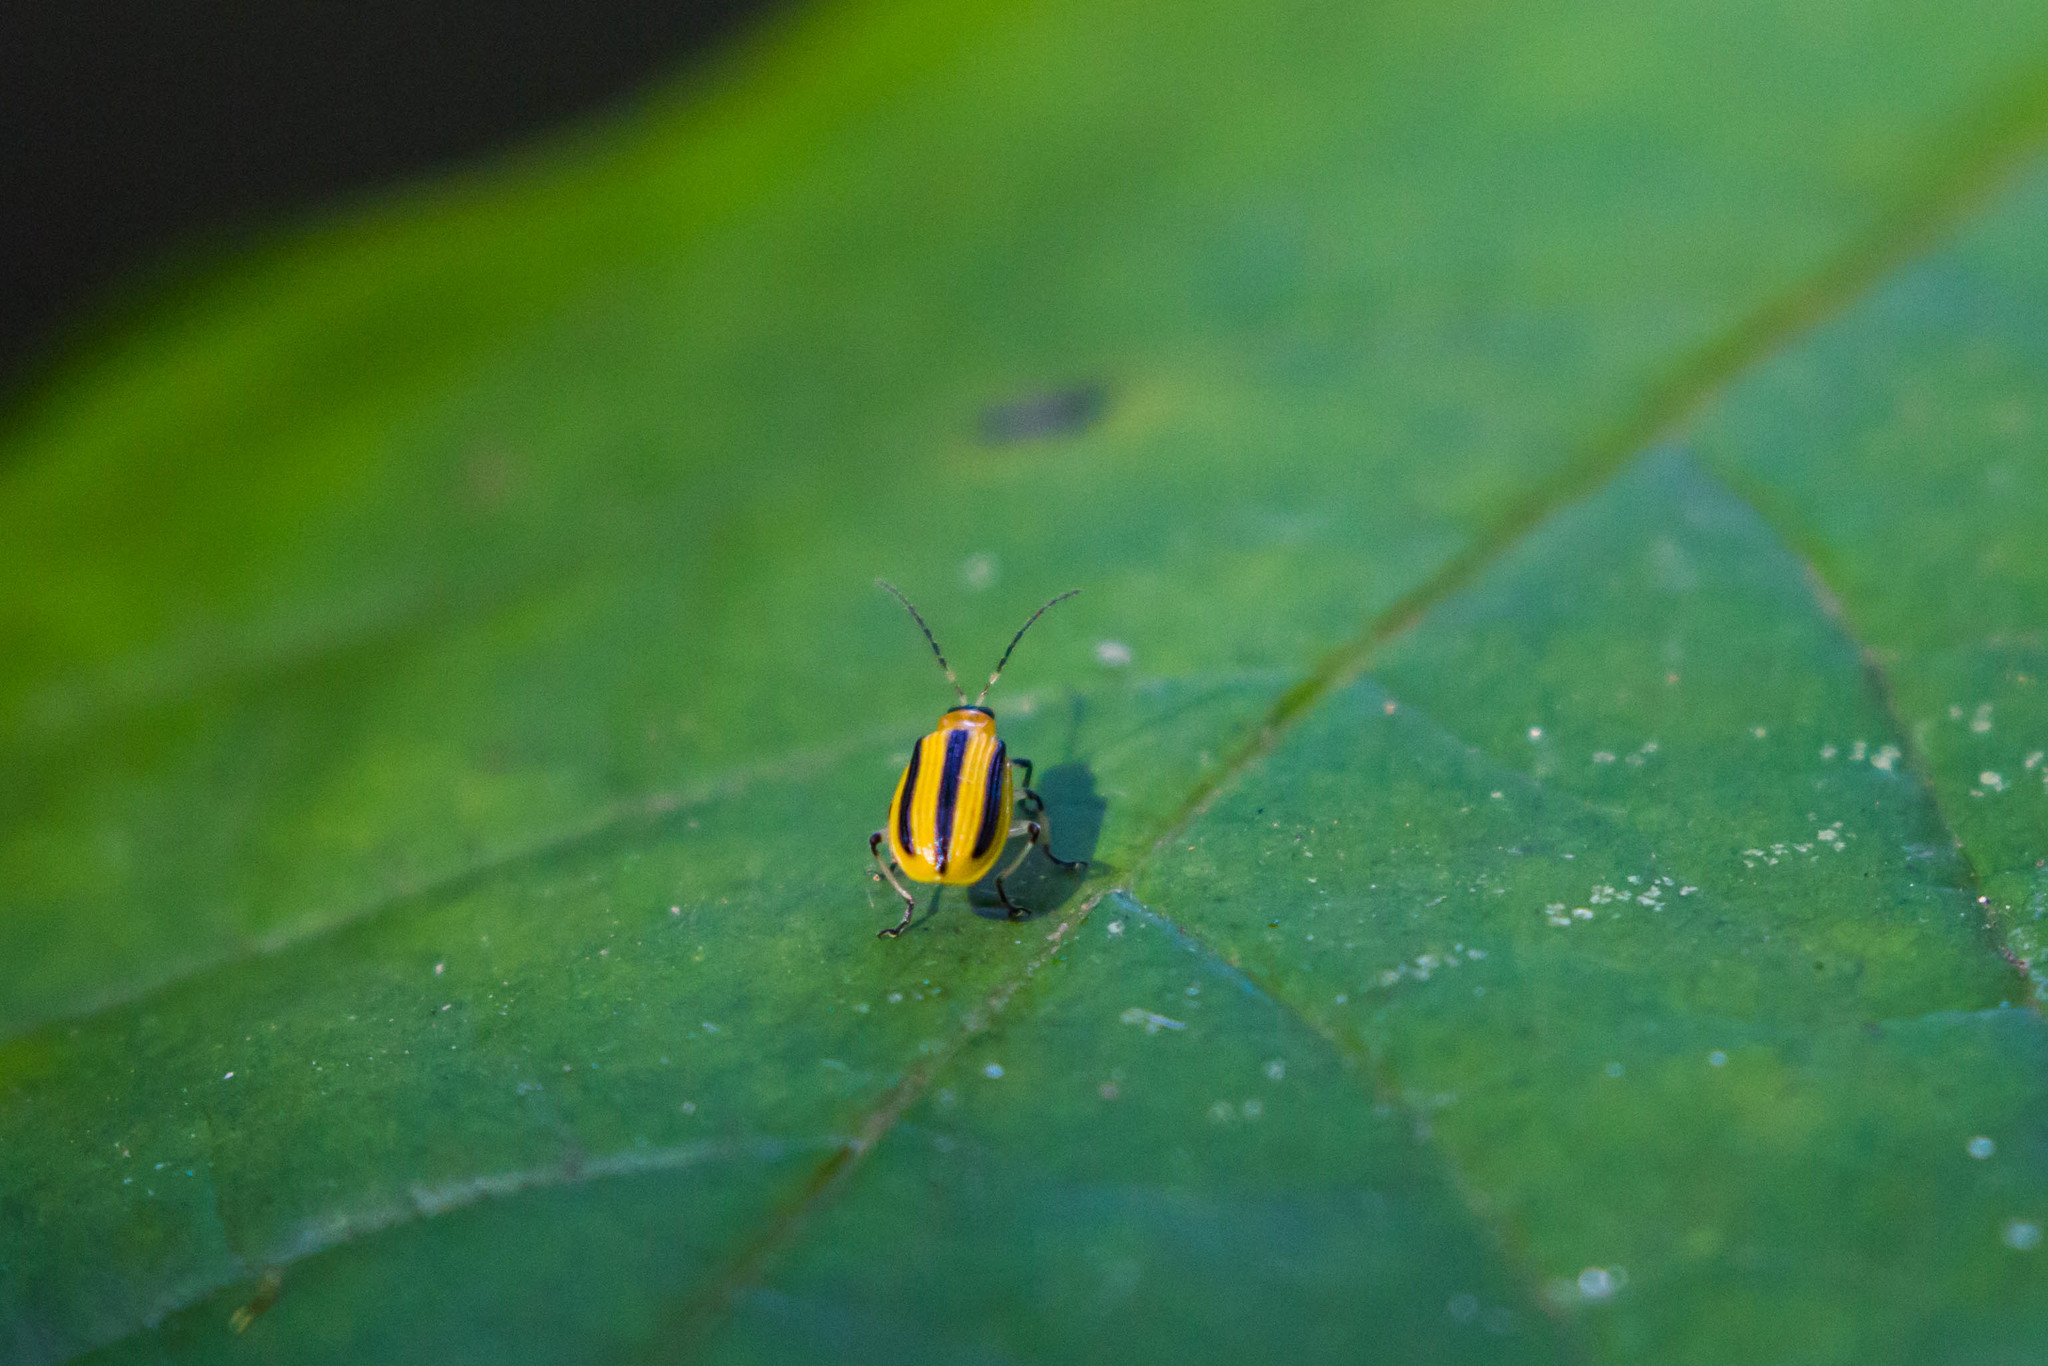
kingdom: Animalia
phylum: Arthropoda
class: Insecta
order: Coleoptera
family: Chrysomelidae
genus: Acalymma
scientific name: Acalymma vittatum
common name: Striped cucumber beetle
